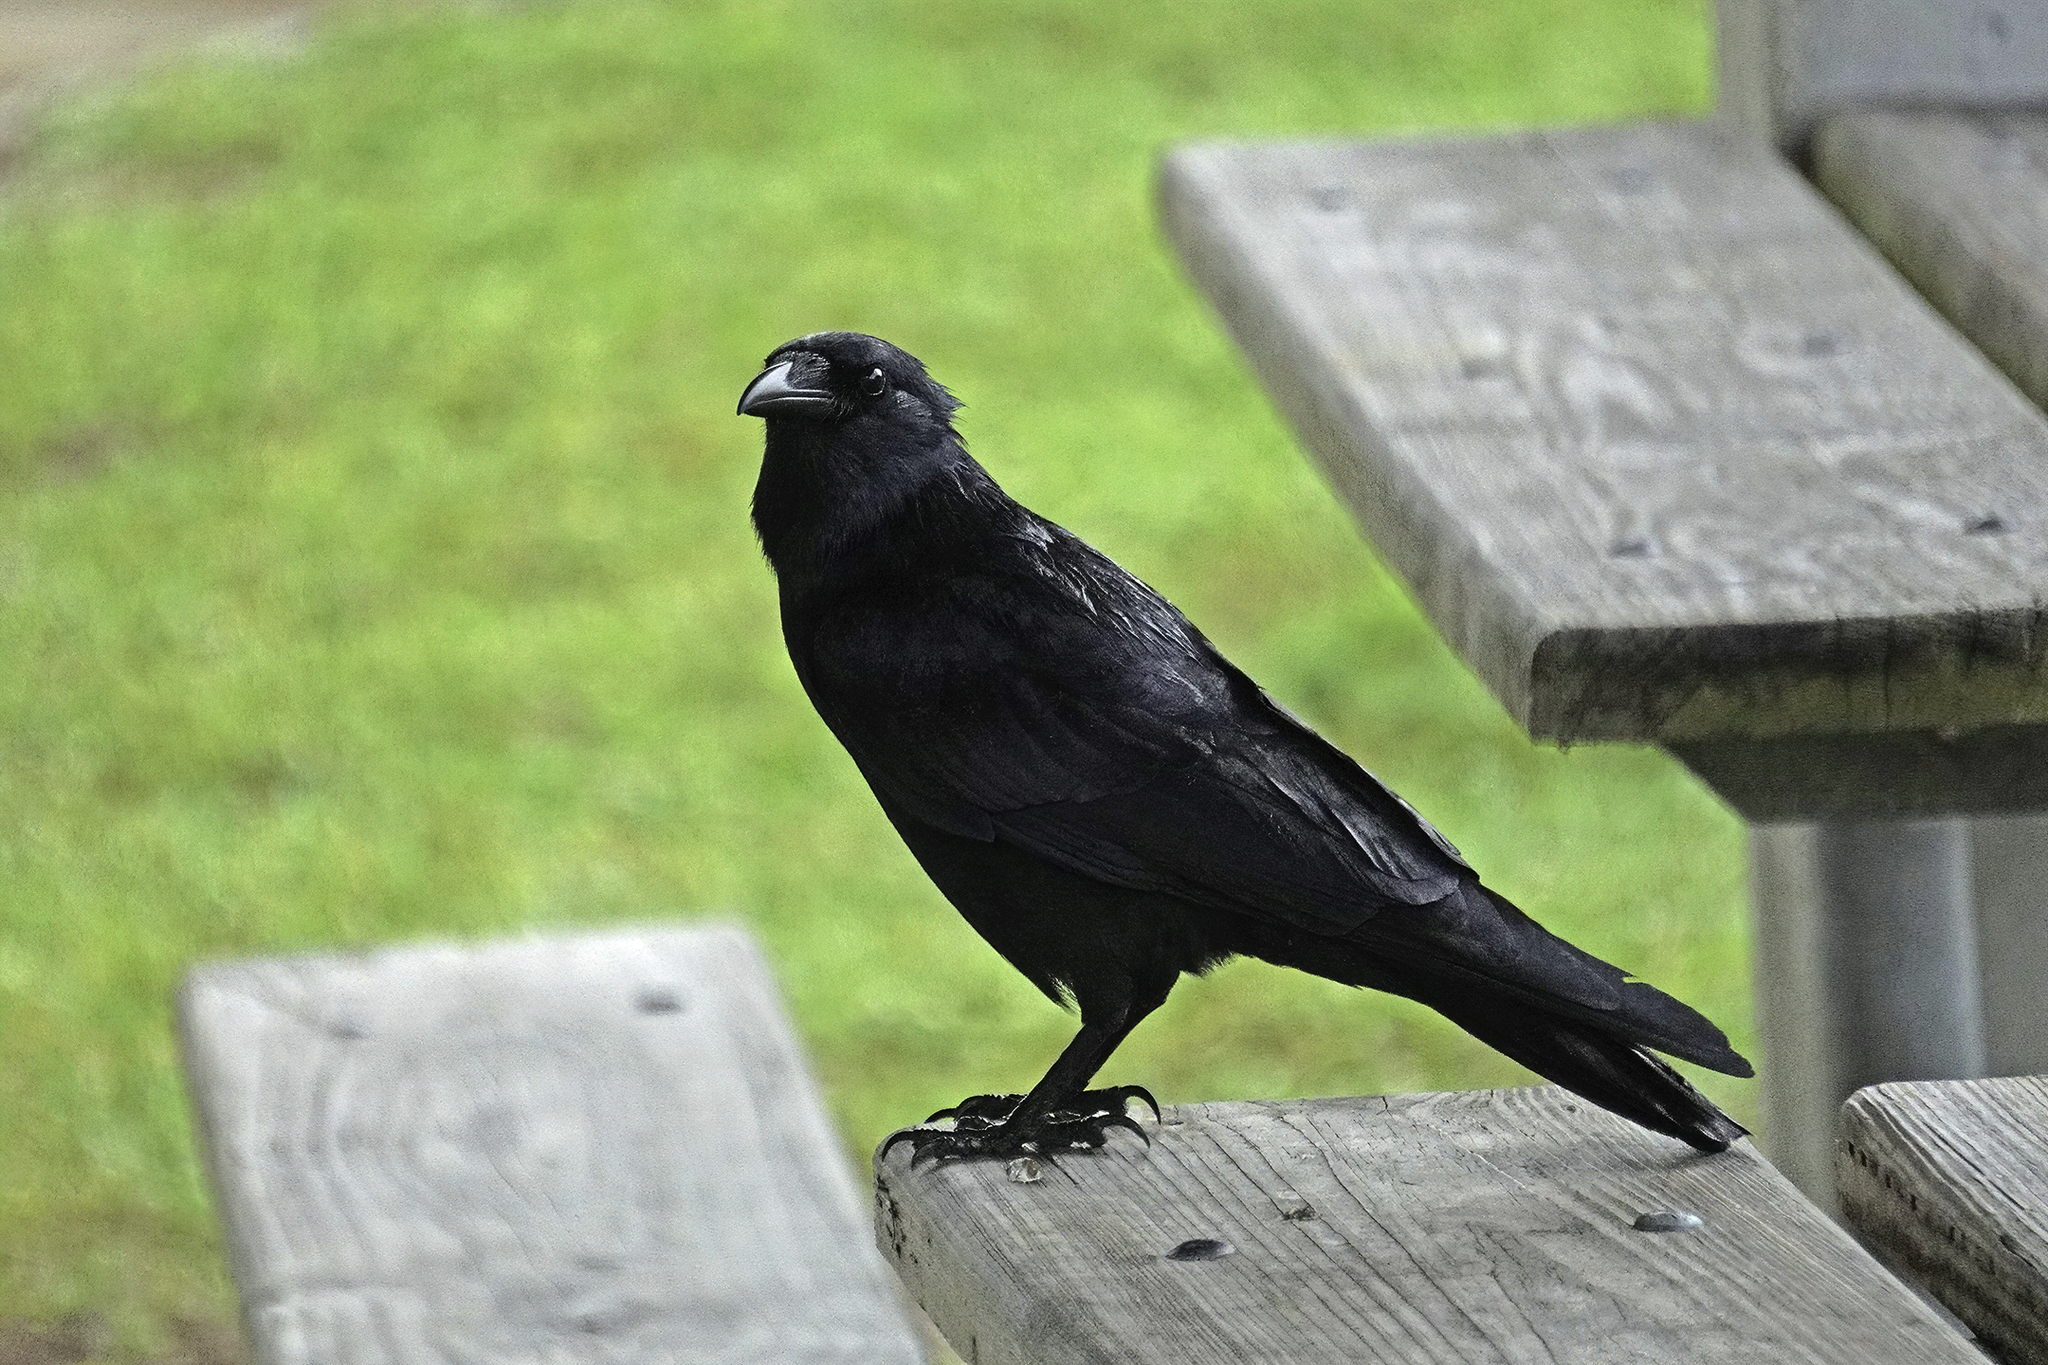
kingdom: Animalia
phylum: Chordata
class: Aves
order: Passeriformes
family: Corvidae
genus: Corvus
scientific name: Corvus
